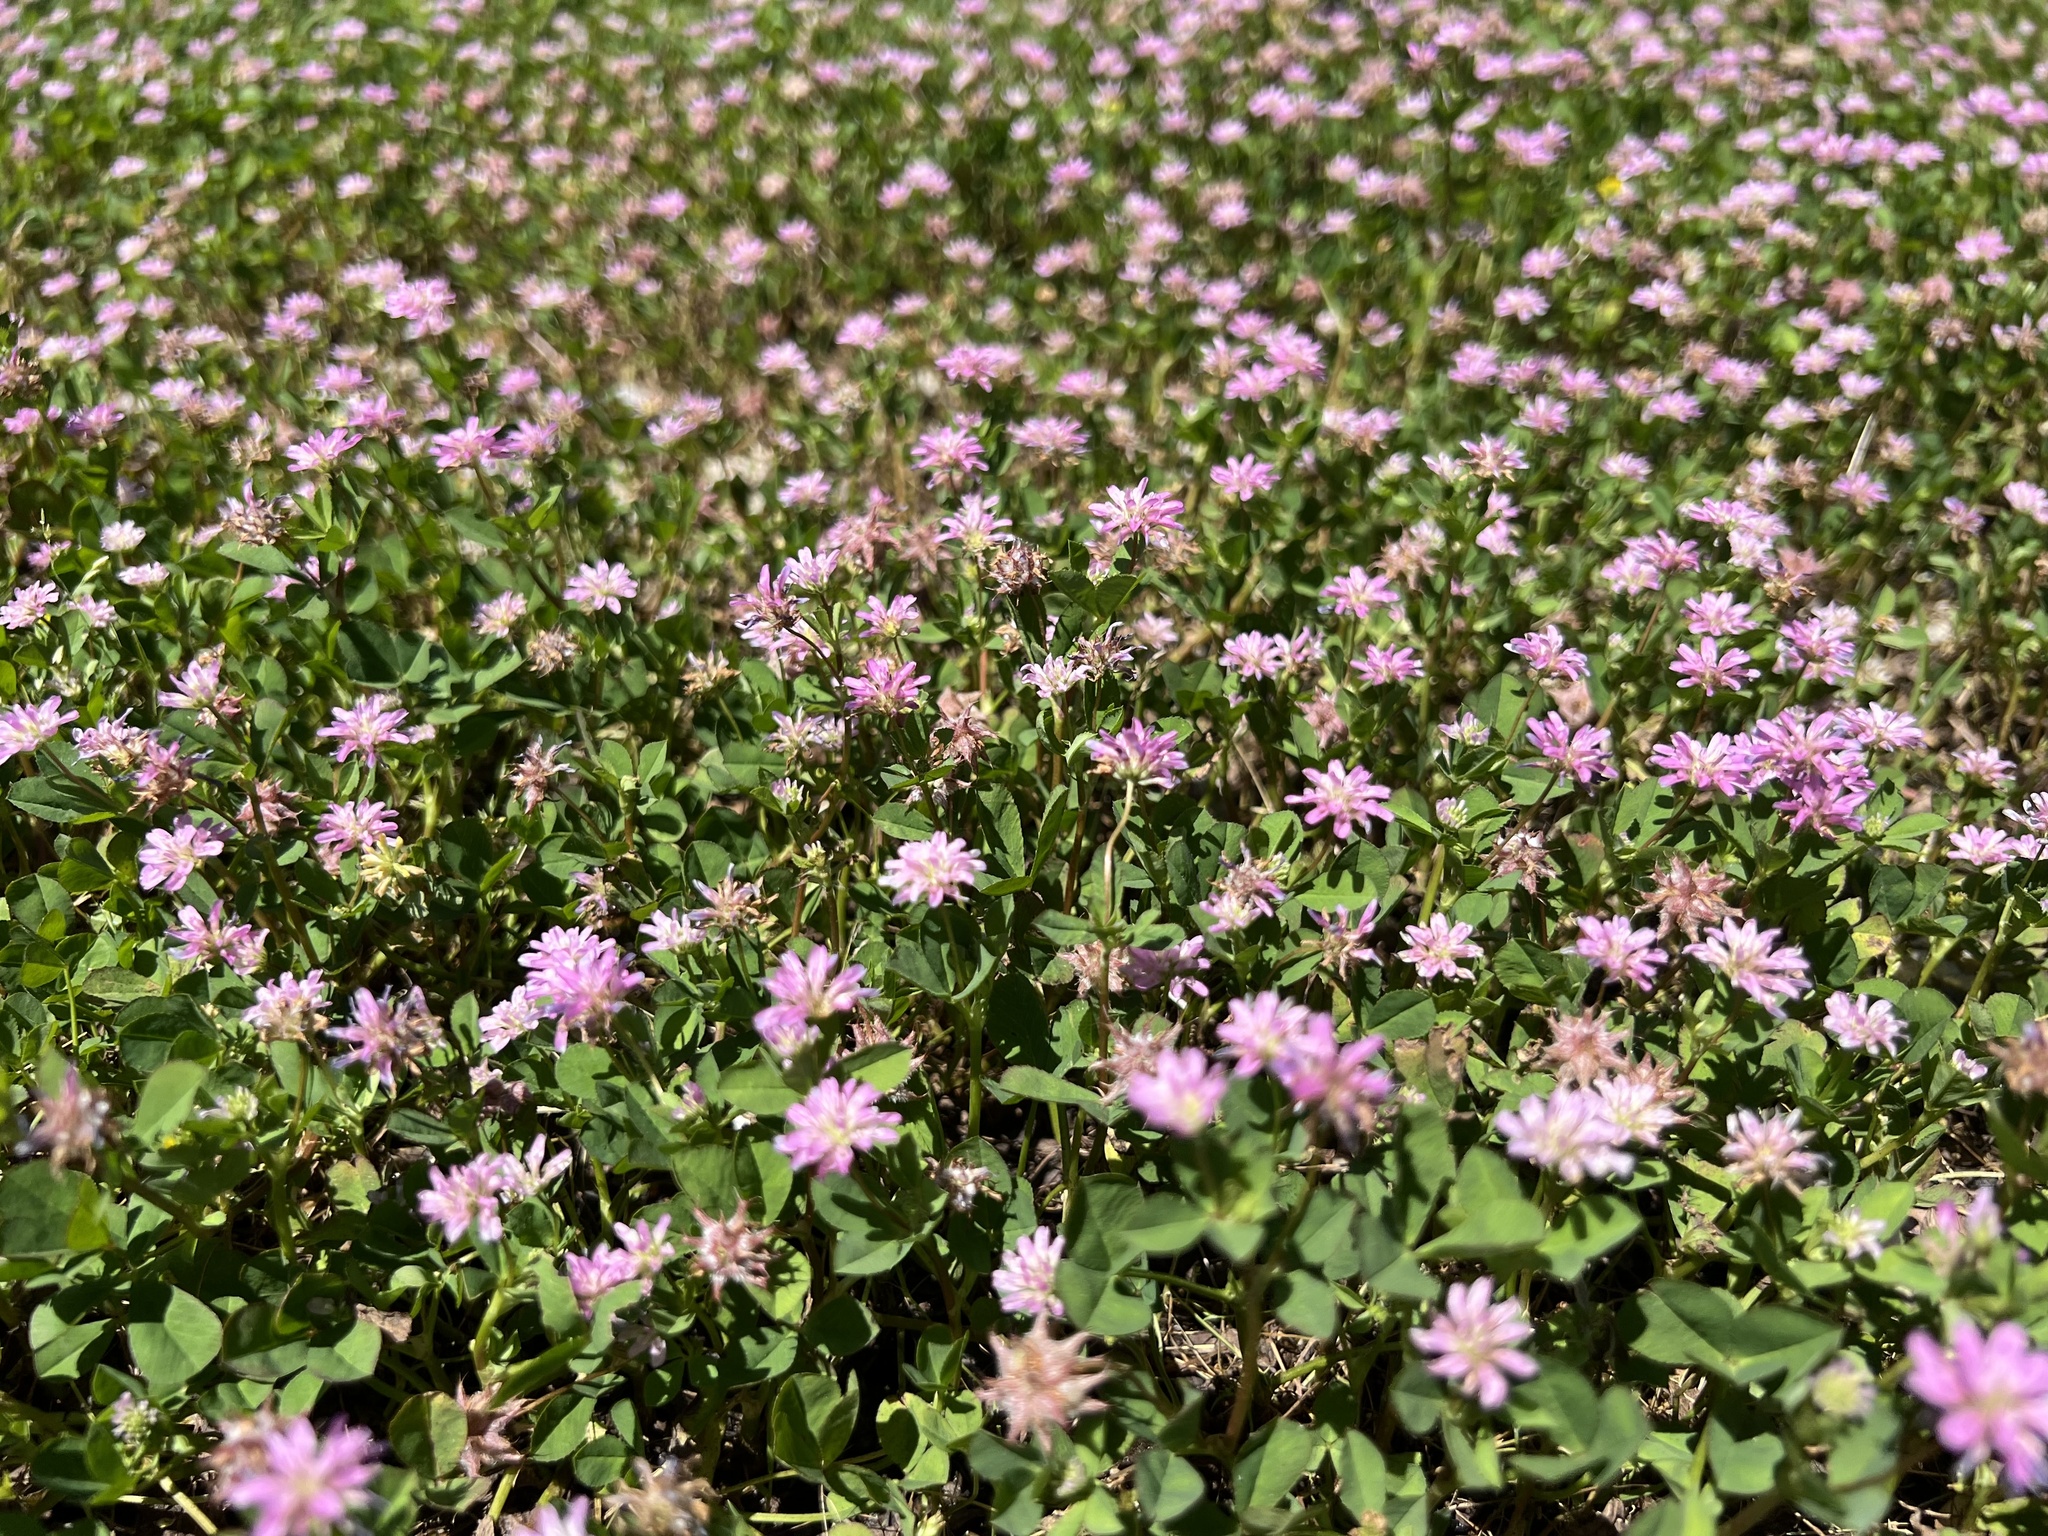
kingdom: Plantae
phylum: Tracheophyta
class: Magnoliopsida
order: Fabales
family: Fabaceae
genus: Trifolium
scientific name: Trifolium resupinatum
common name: Reversed clover
